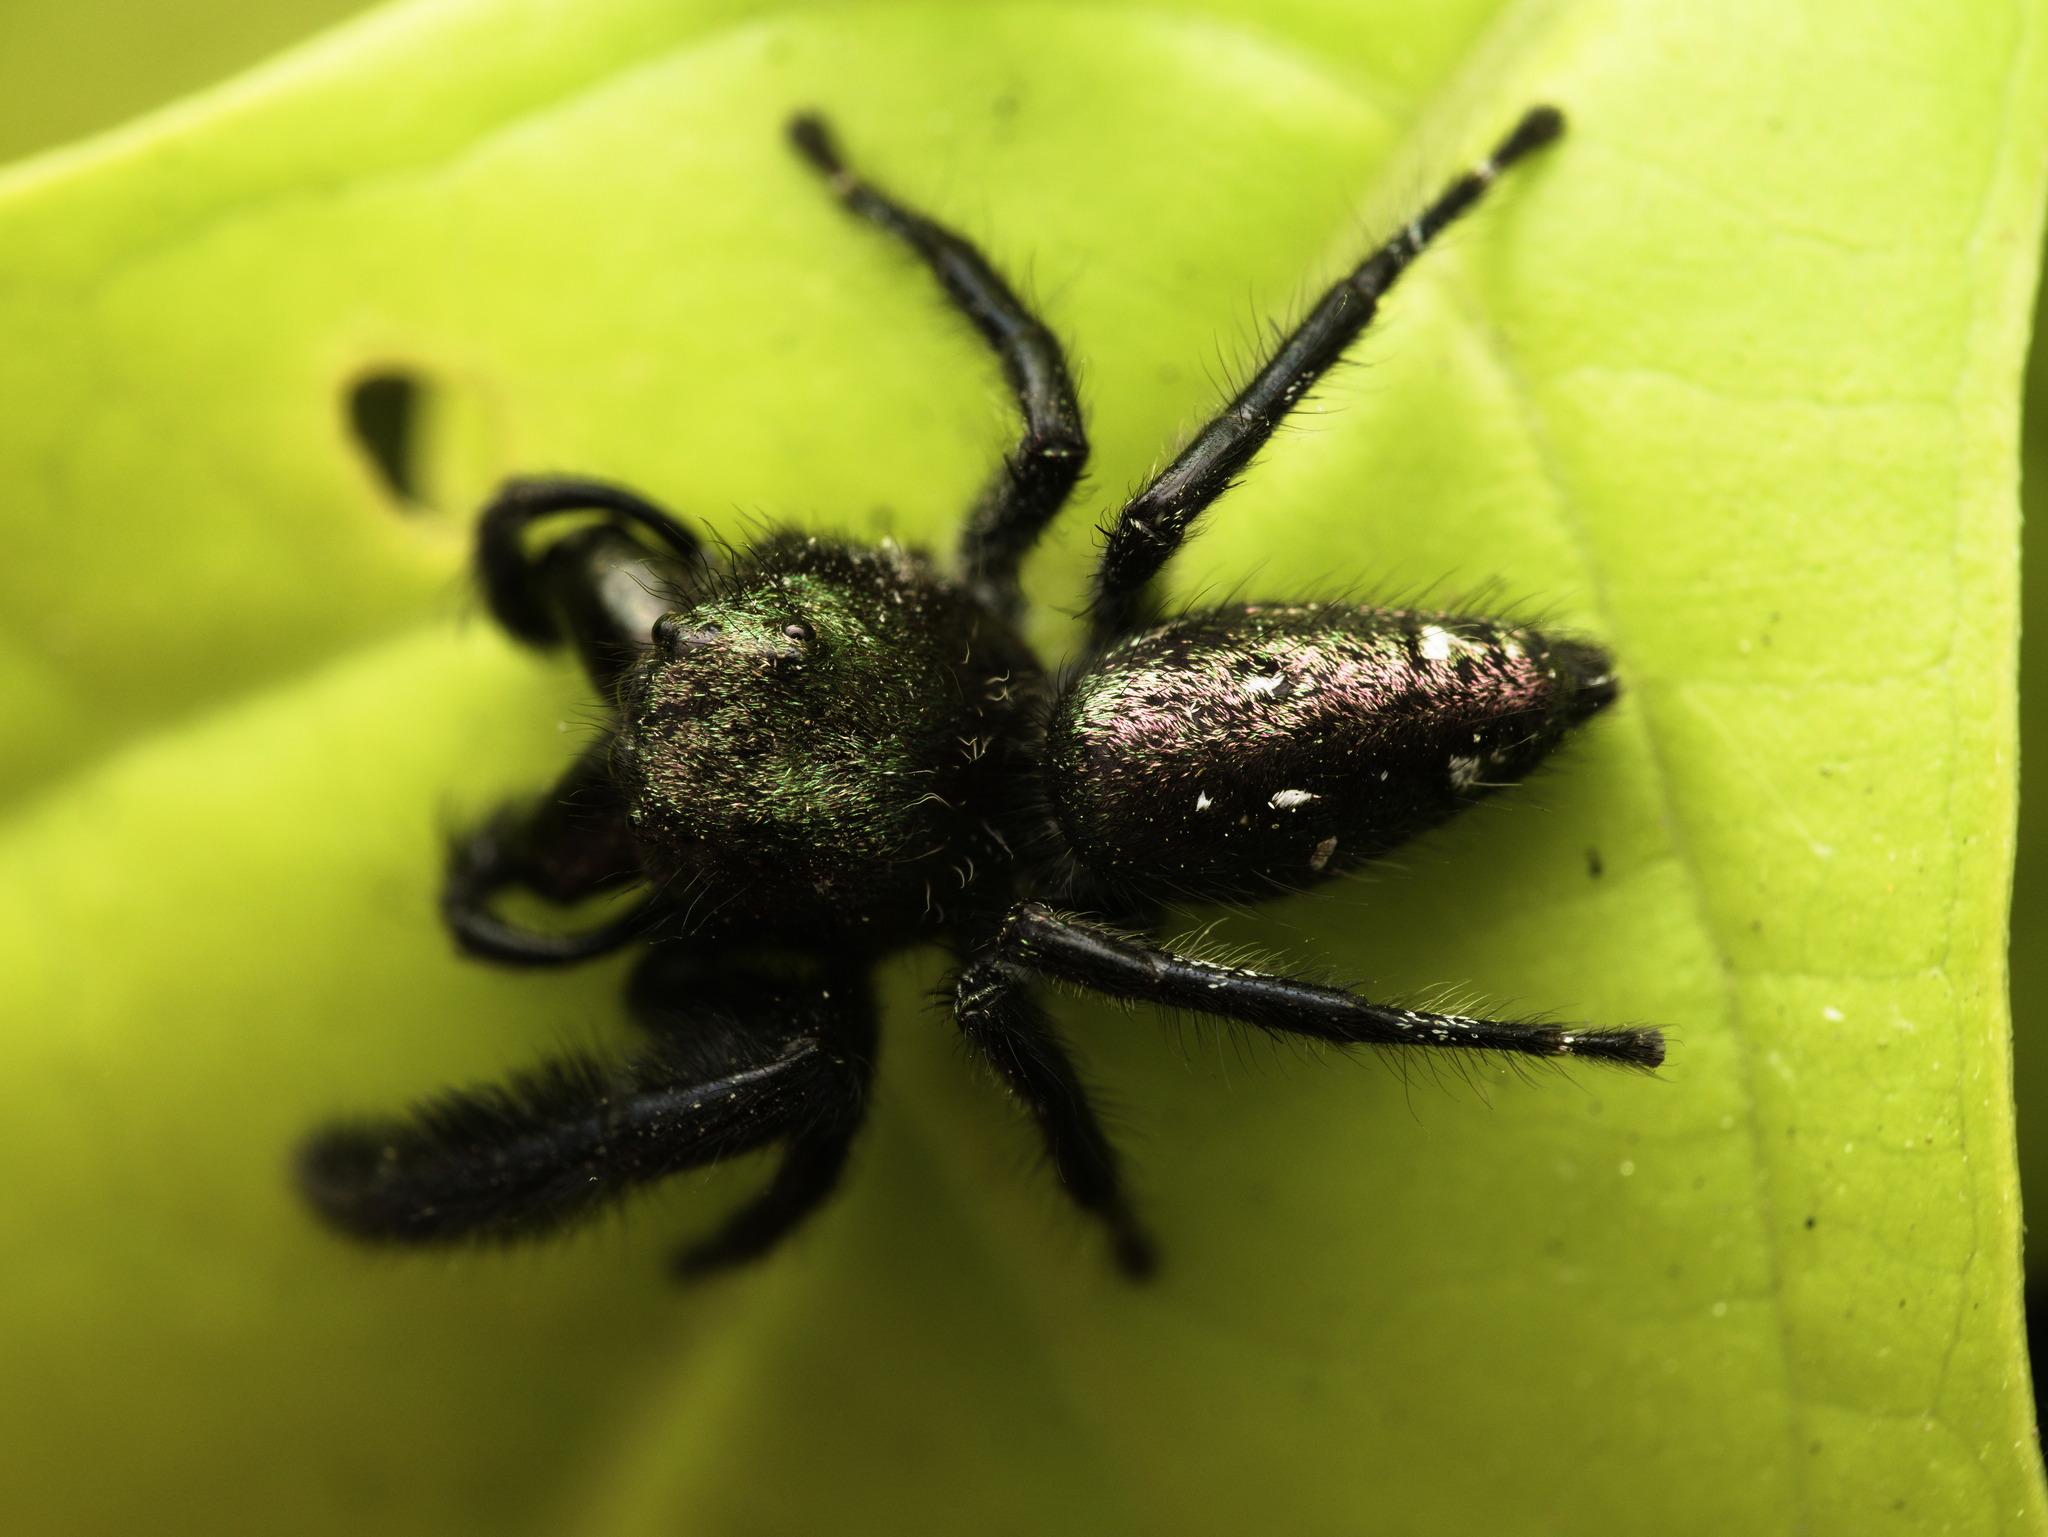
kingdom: Animalia
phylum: Arthropoda
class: Arachnida
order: Araneae
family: Salticidae
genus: Paraphidippus
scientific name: Paraphidippus fartilis
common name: Jumping spiders
